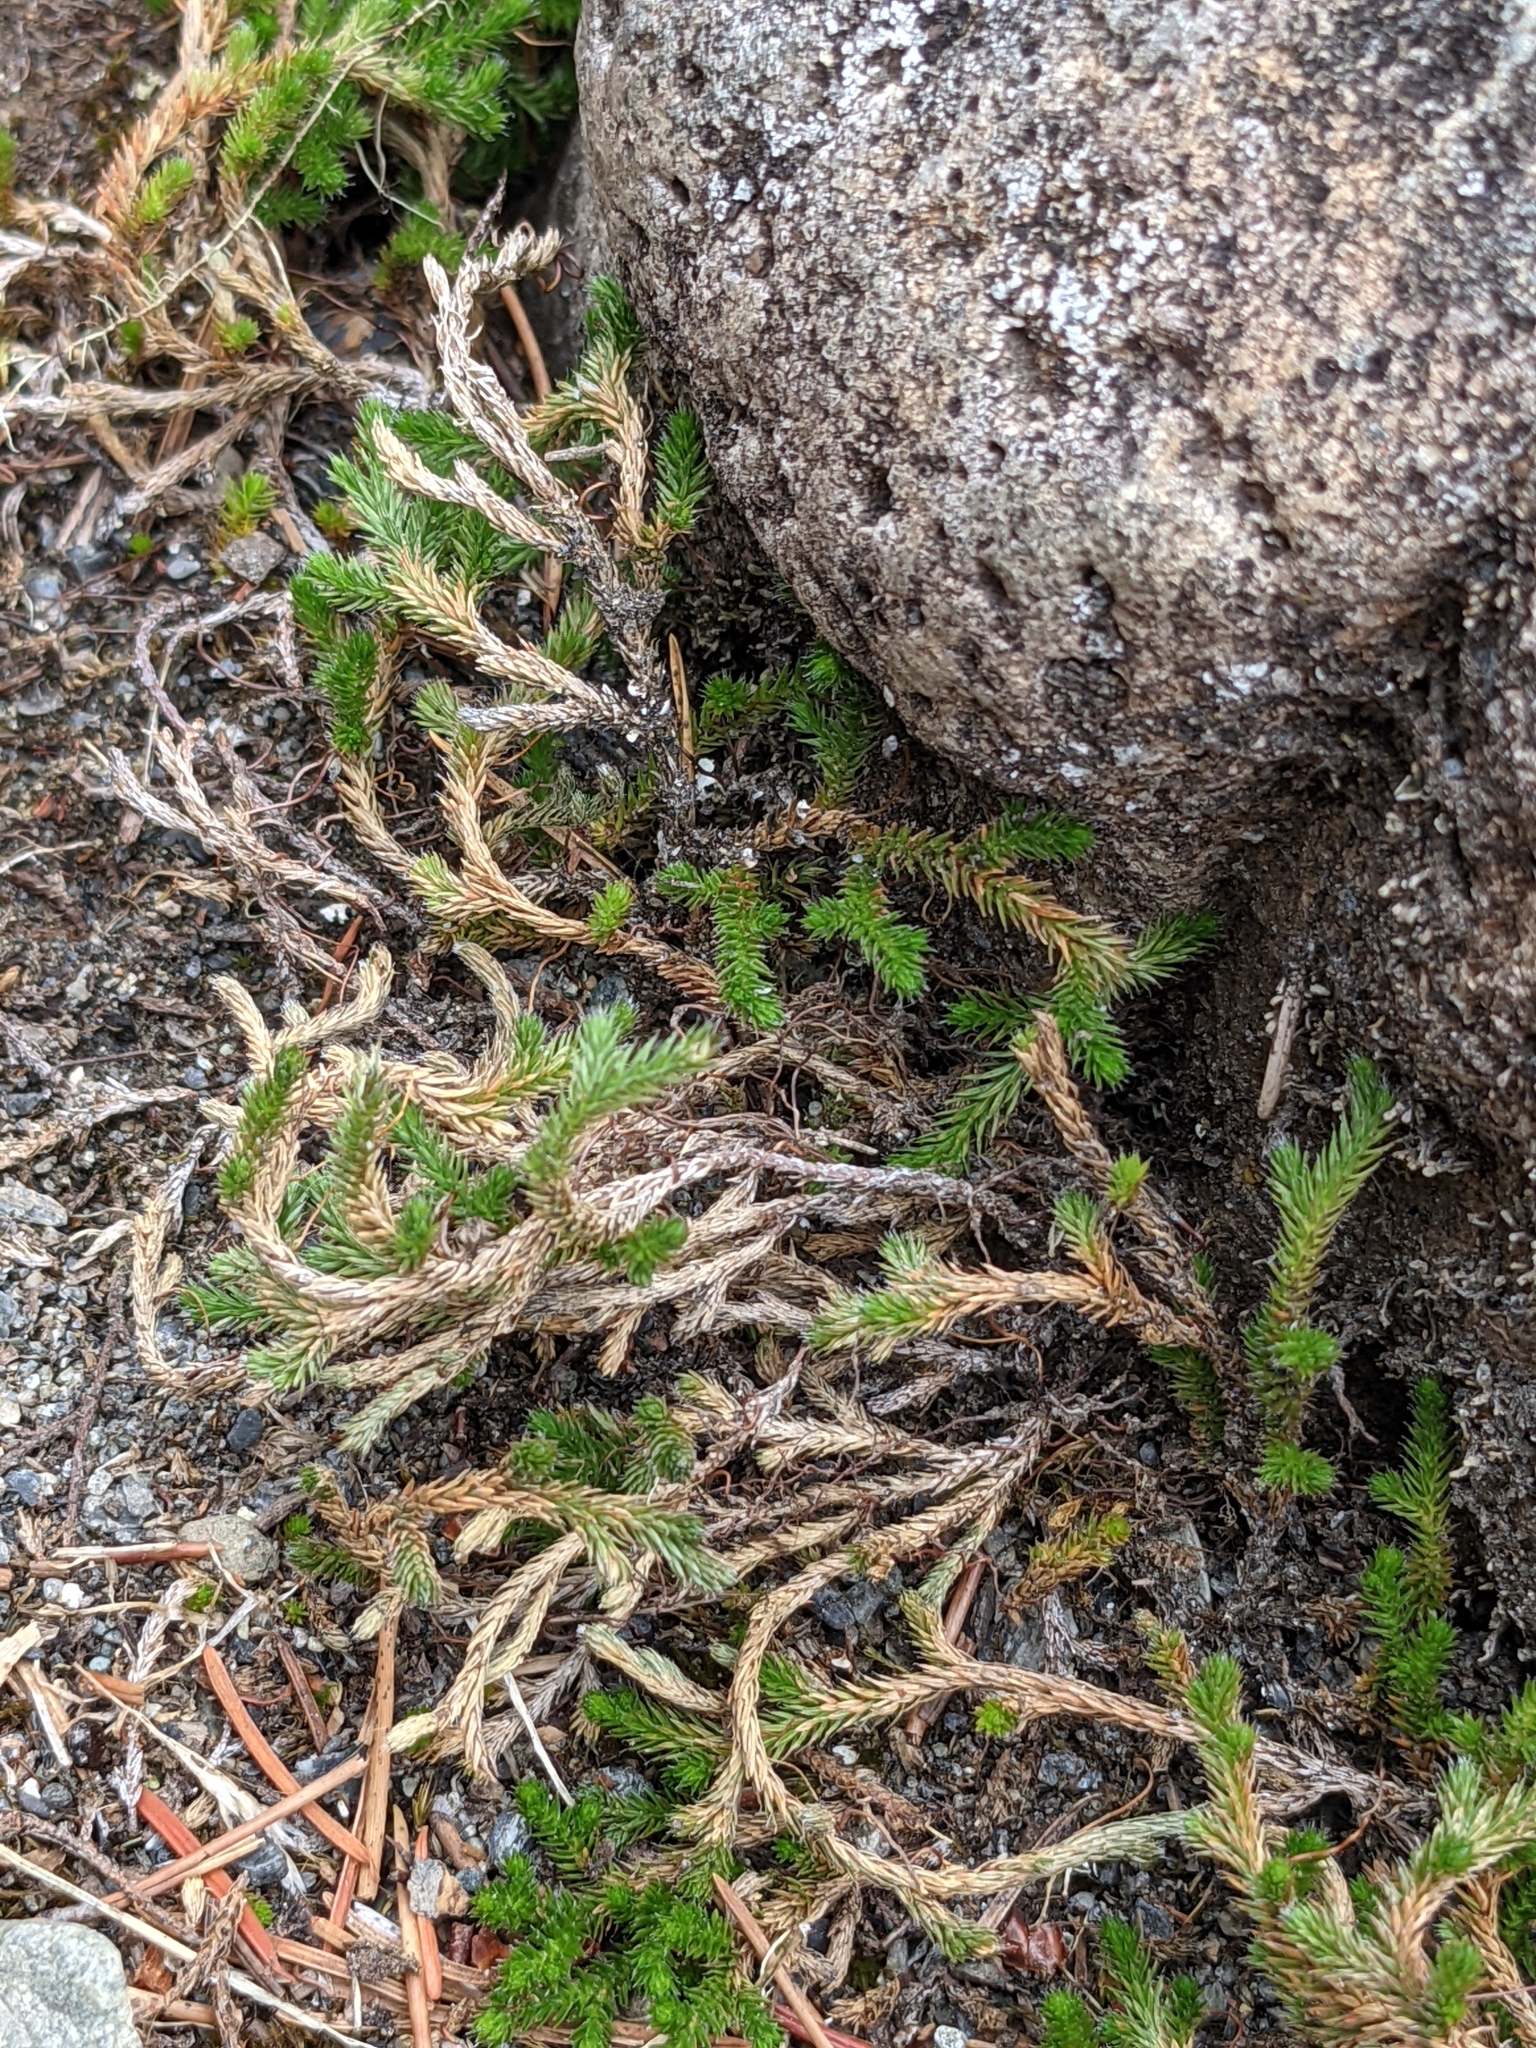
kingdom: Plantae
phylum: Tracheophyta
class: Lycopodiopsida
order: Selaginellales
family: Selaginellaceae
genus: Selaginella
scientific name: Selaginella wallacei
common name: Wallace's selaginella
